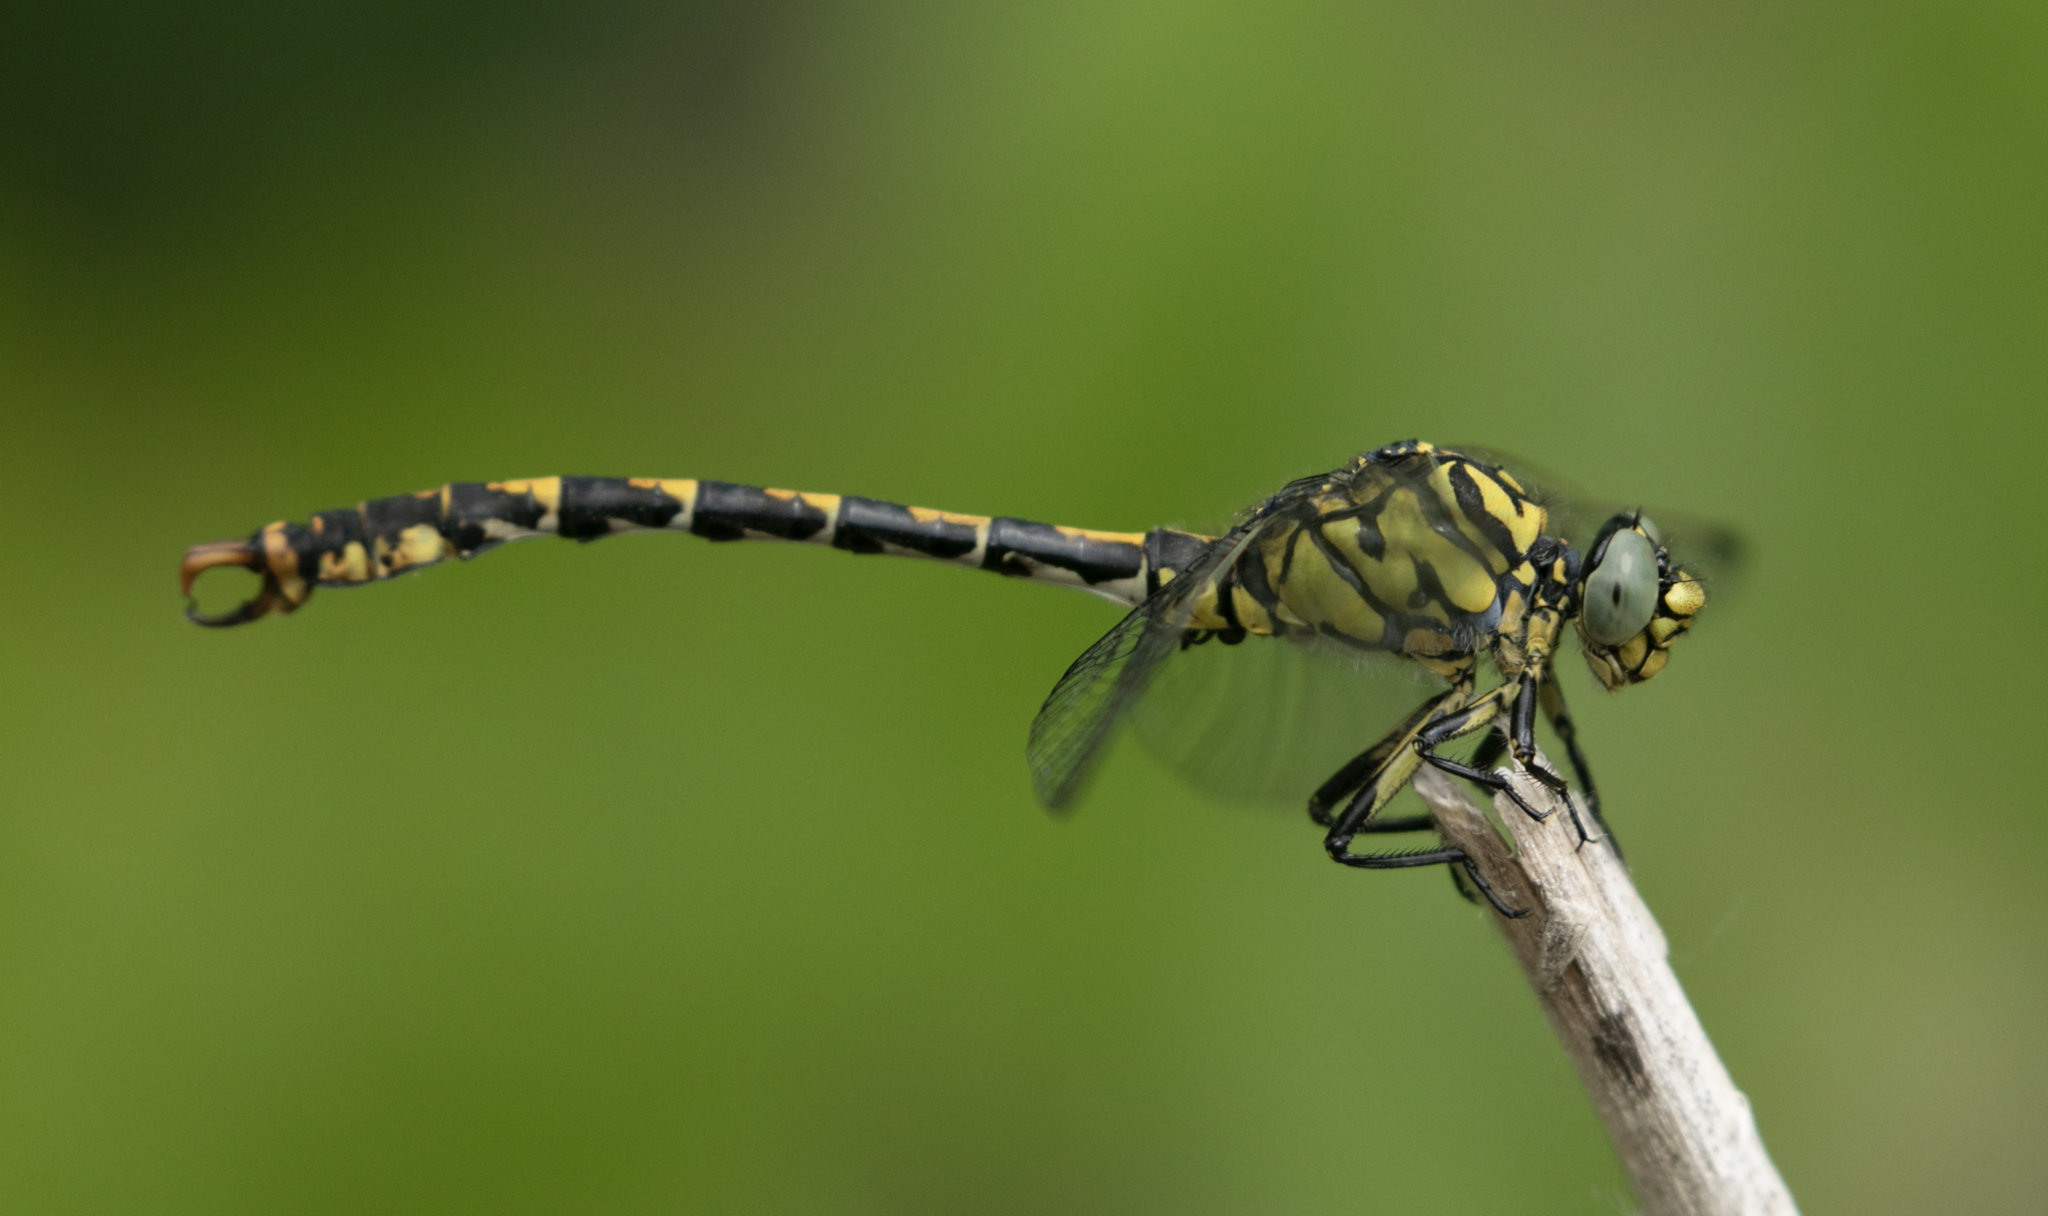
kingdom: Animalia
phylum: Arthropoda
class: Insecta
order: Odonata
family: Gomphidae
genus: Onychogomphus
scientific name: Onychogomphus forcipatus
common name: Small pincertail
